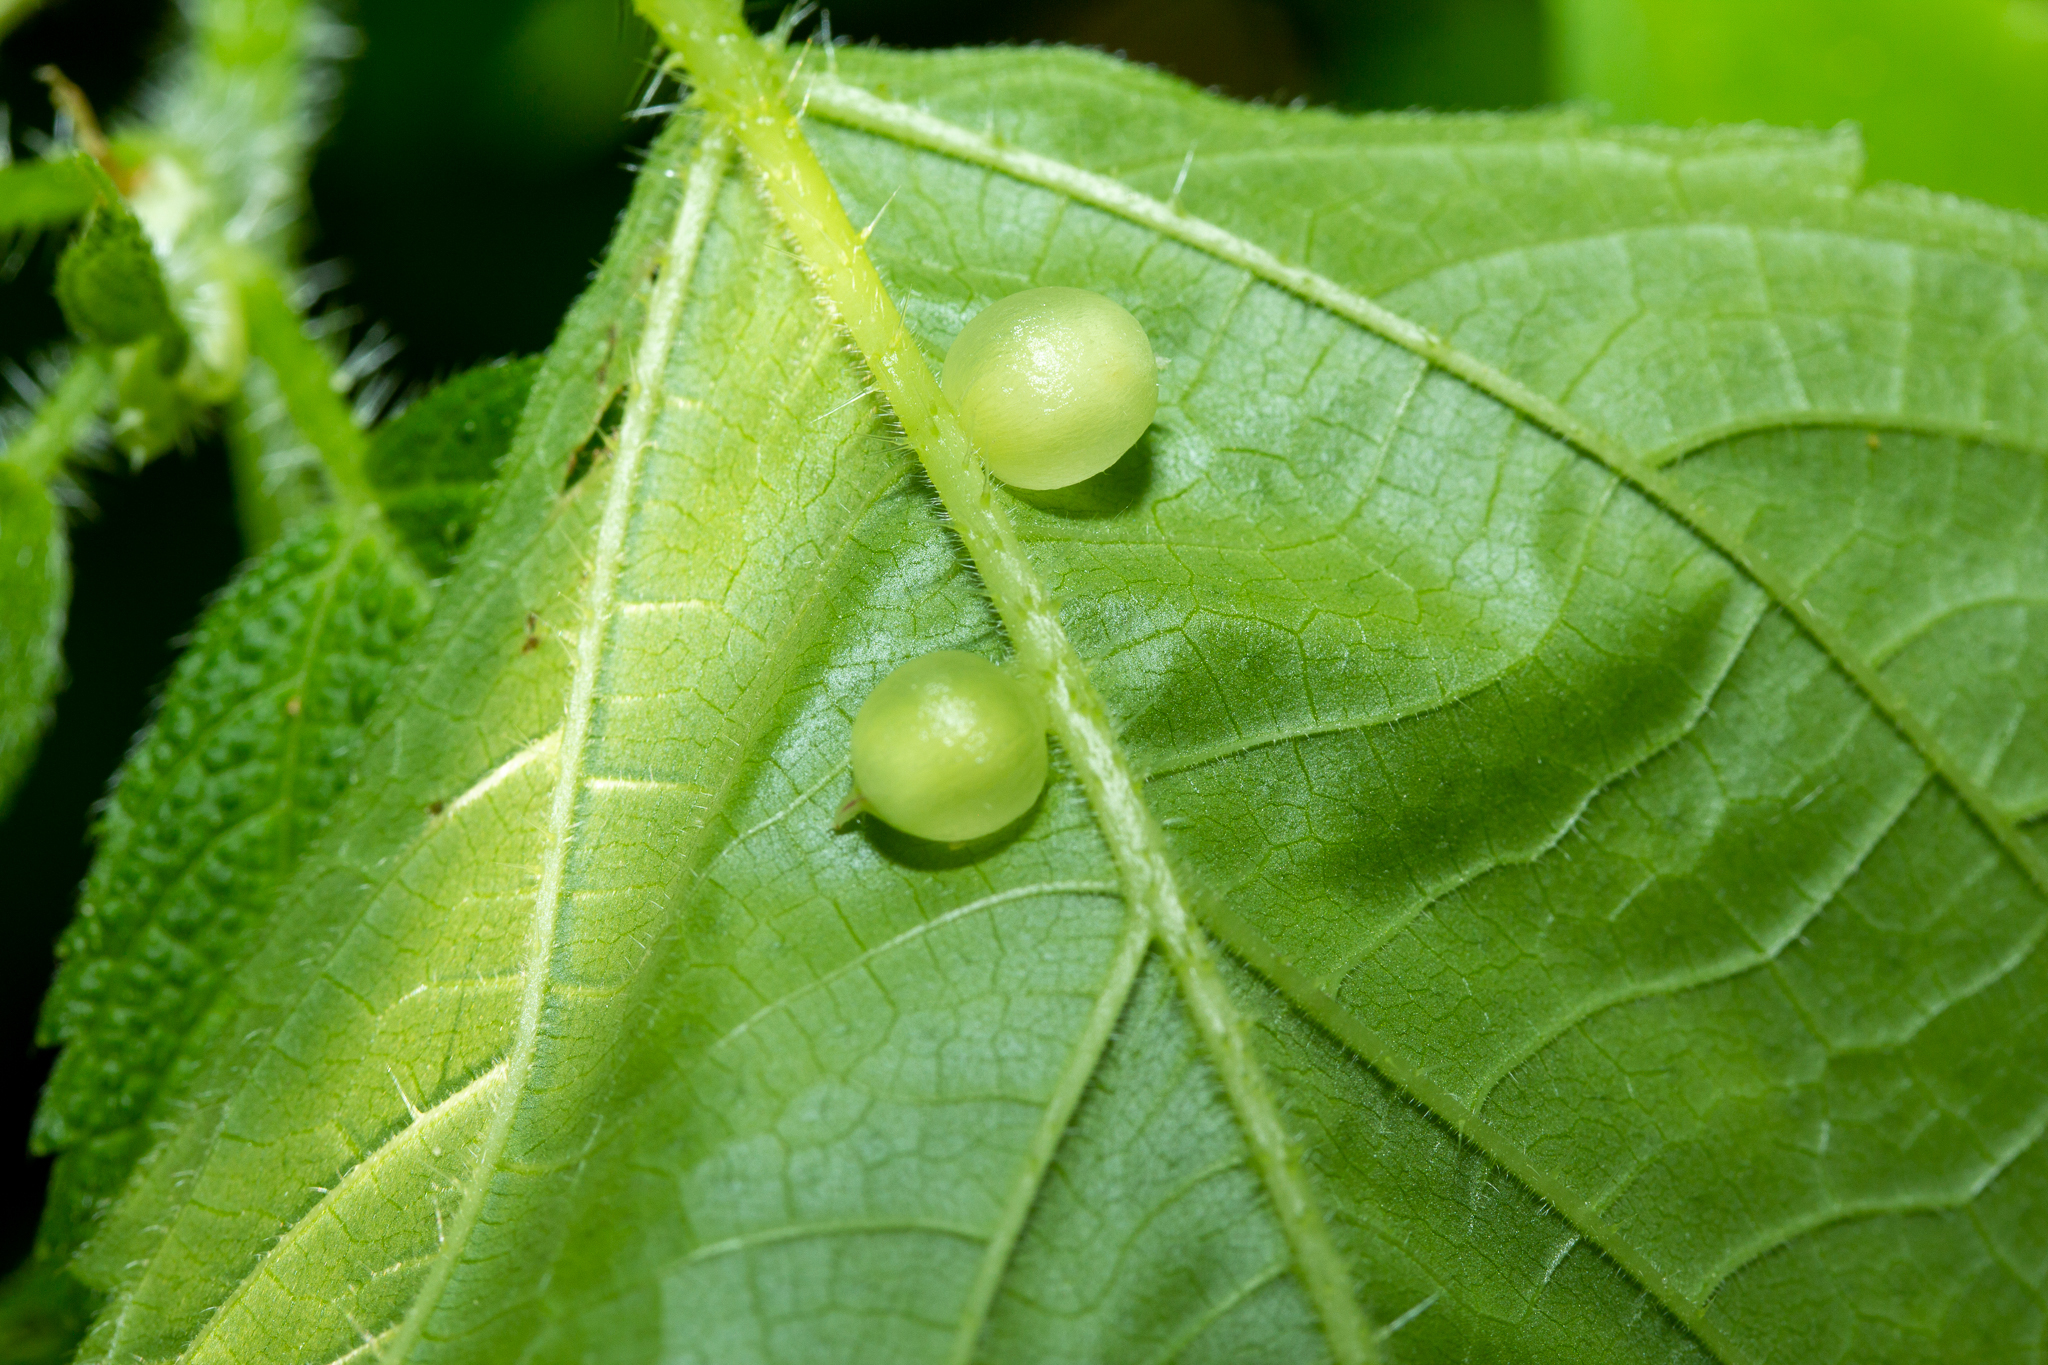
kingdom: Animalia
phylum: Arthropoda
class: Insecta
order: Diptera
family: Cecidomyiidae
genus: Dasineura
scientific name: Dasineura investita
